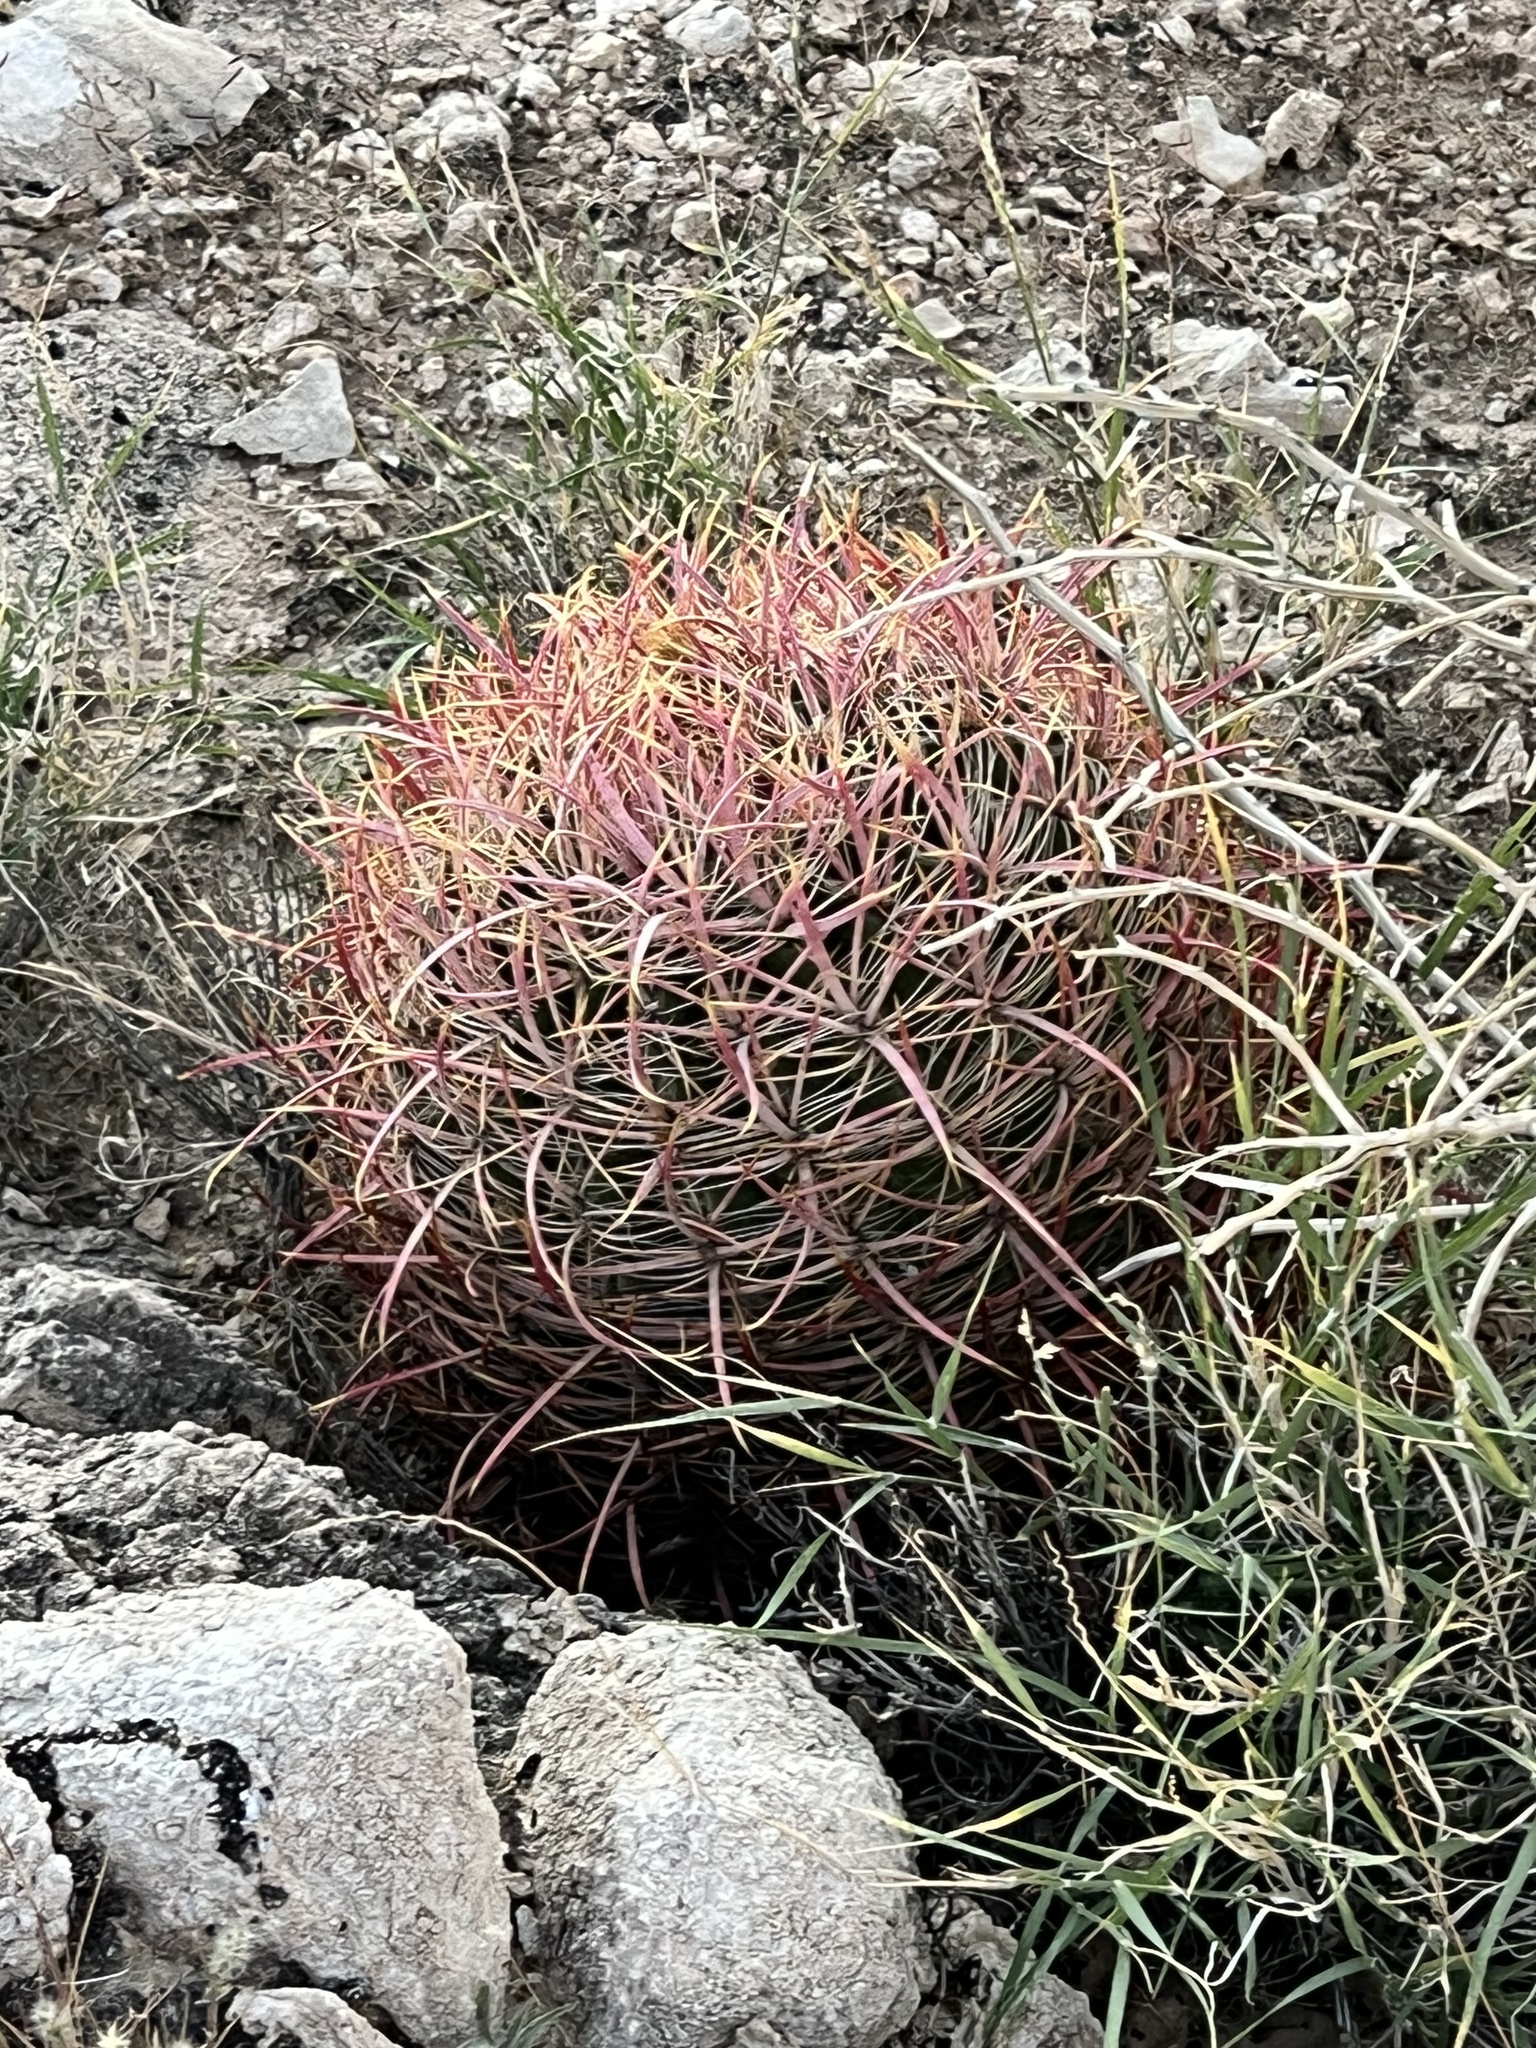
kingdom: Plantae
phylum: Tracheophyta
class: Magnoliopsida
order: Caryophyllales
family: Cactaceae
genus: Ferocactus
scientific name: Ferocactus cylindraceus
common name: California barrel cactus
